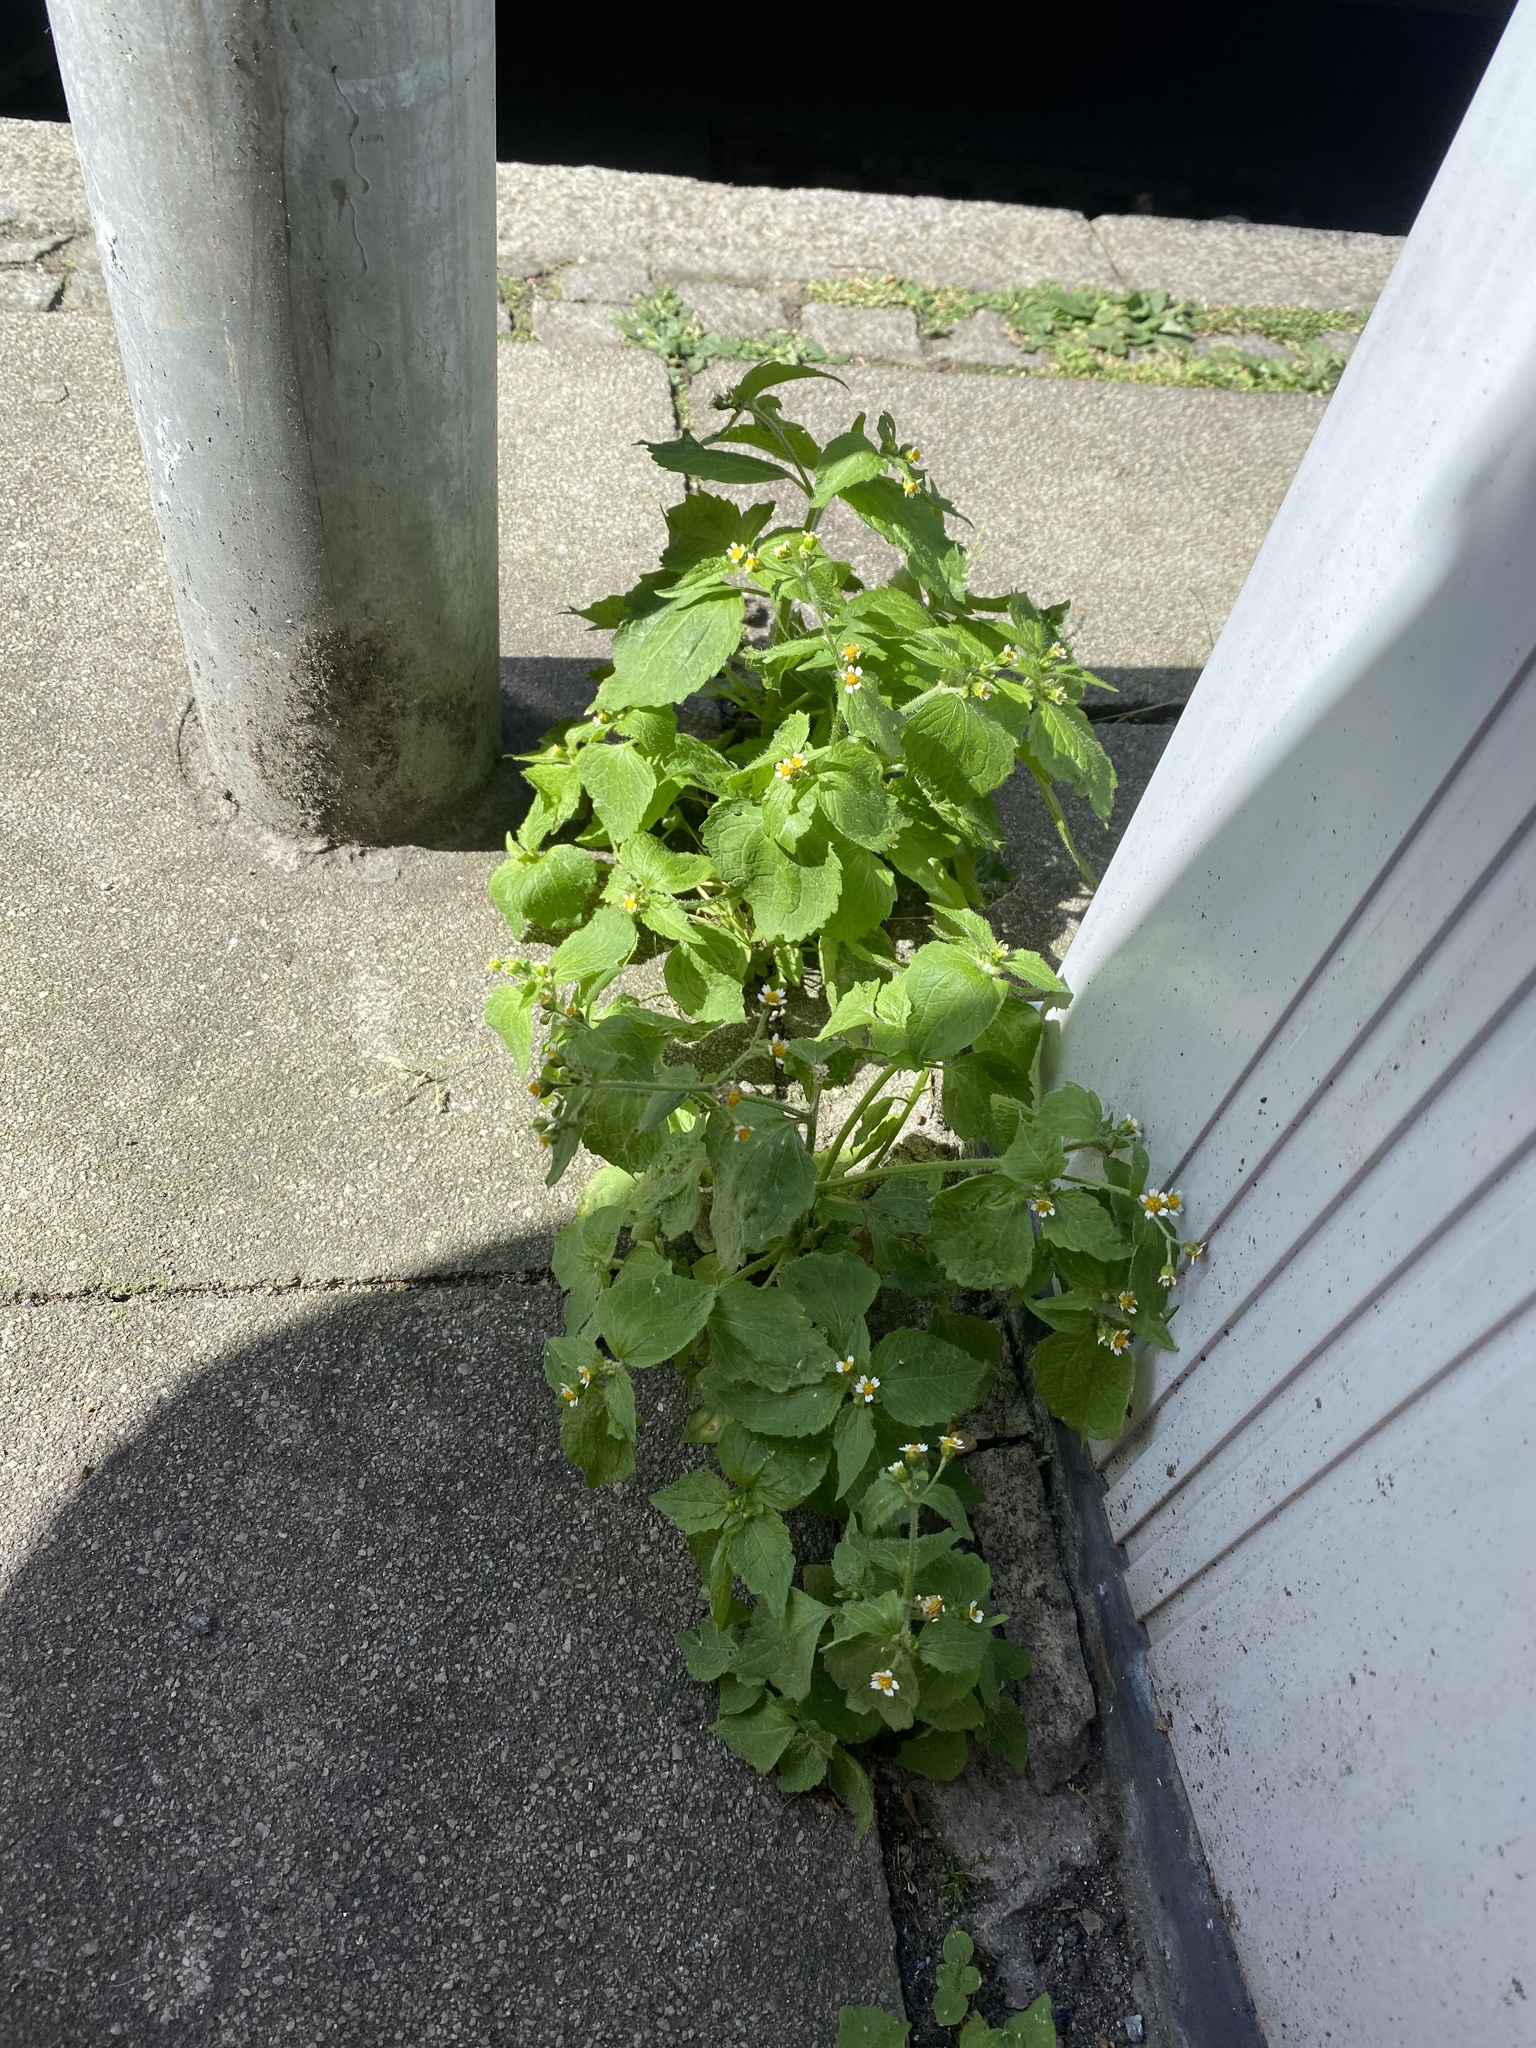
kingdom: Plantae
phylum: Tracheophyta
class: Magnoliopsida
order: Asterales
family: Asteraceae
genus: Galinsoga
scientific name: Galinsoga quadriradiata
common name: Shaggy soldier
